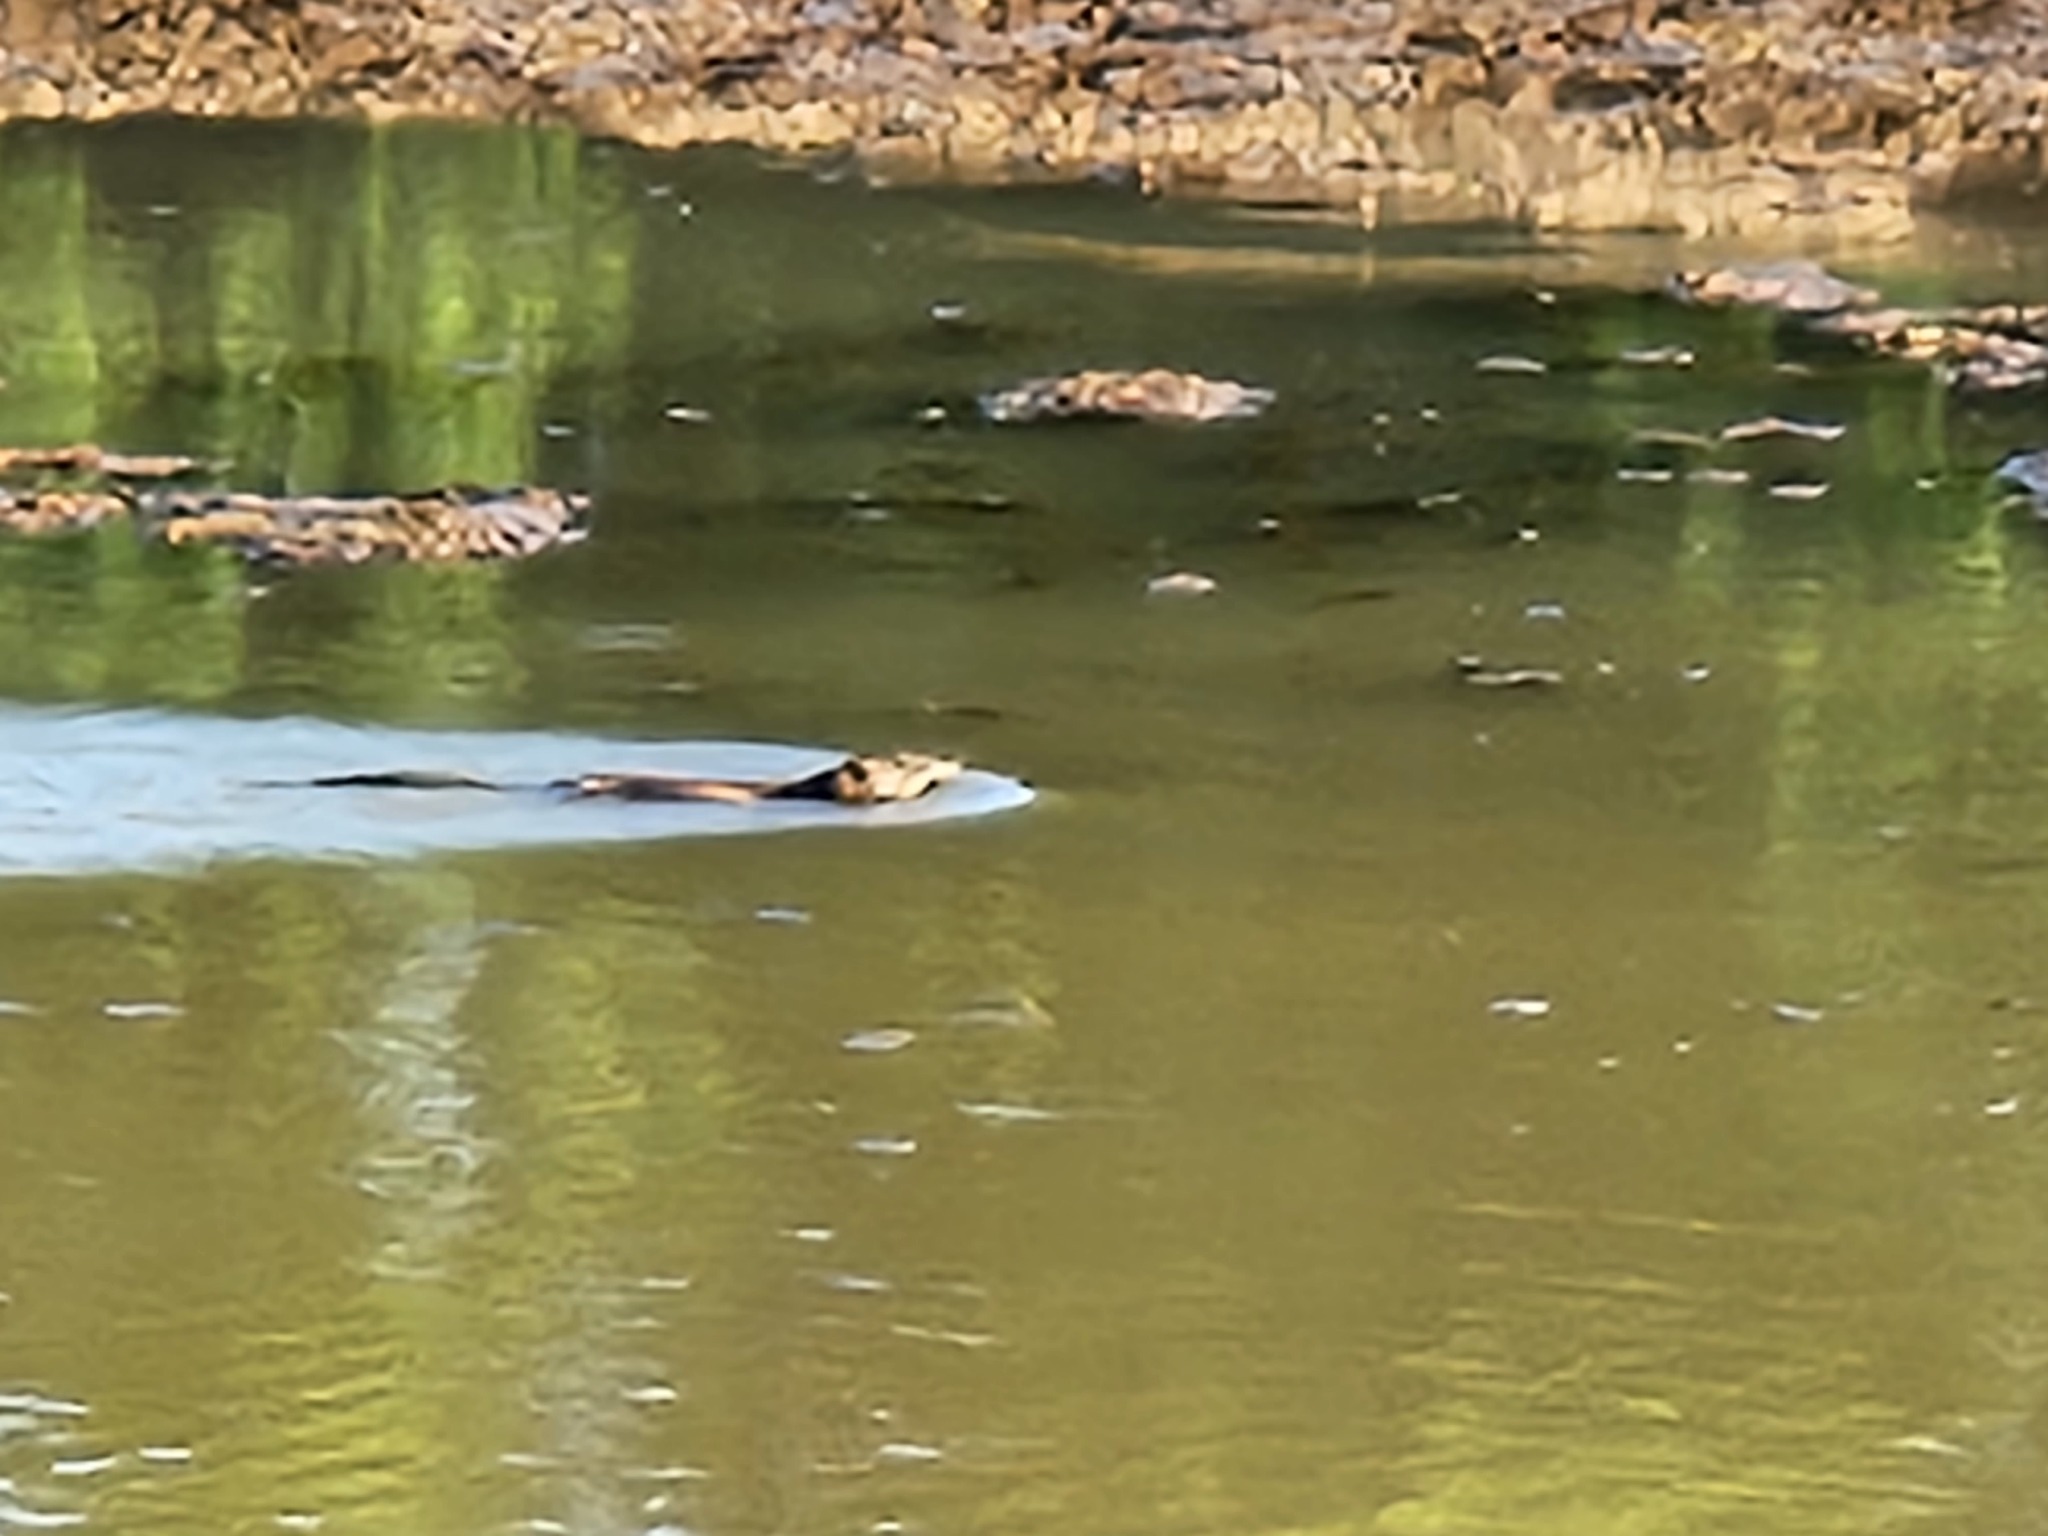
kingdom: Animalia
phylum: Chordata
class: Mammalia
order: Rodentia
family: Cricetidae
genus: Ondatra
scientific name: Ondatra zibethicus
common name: Muskrat
